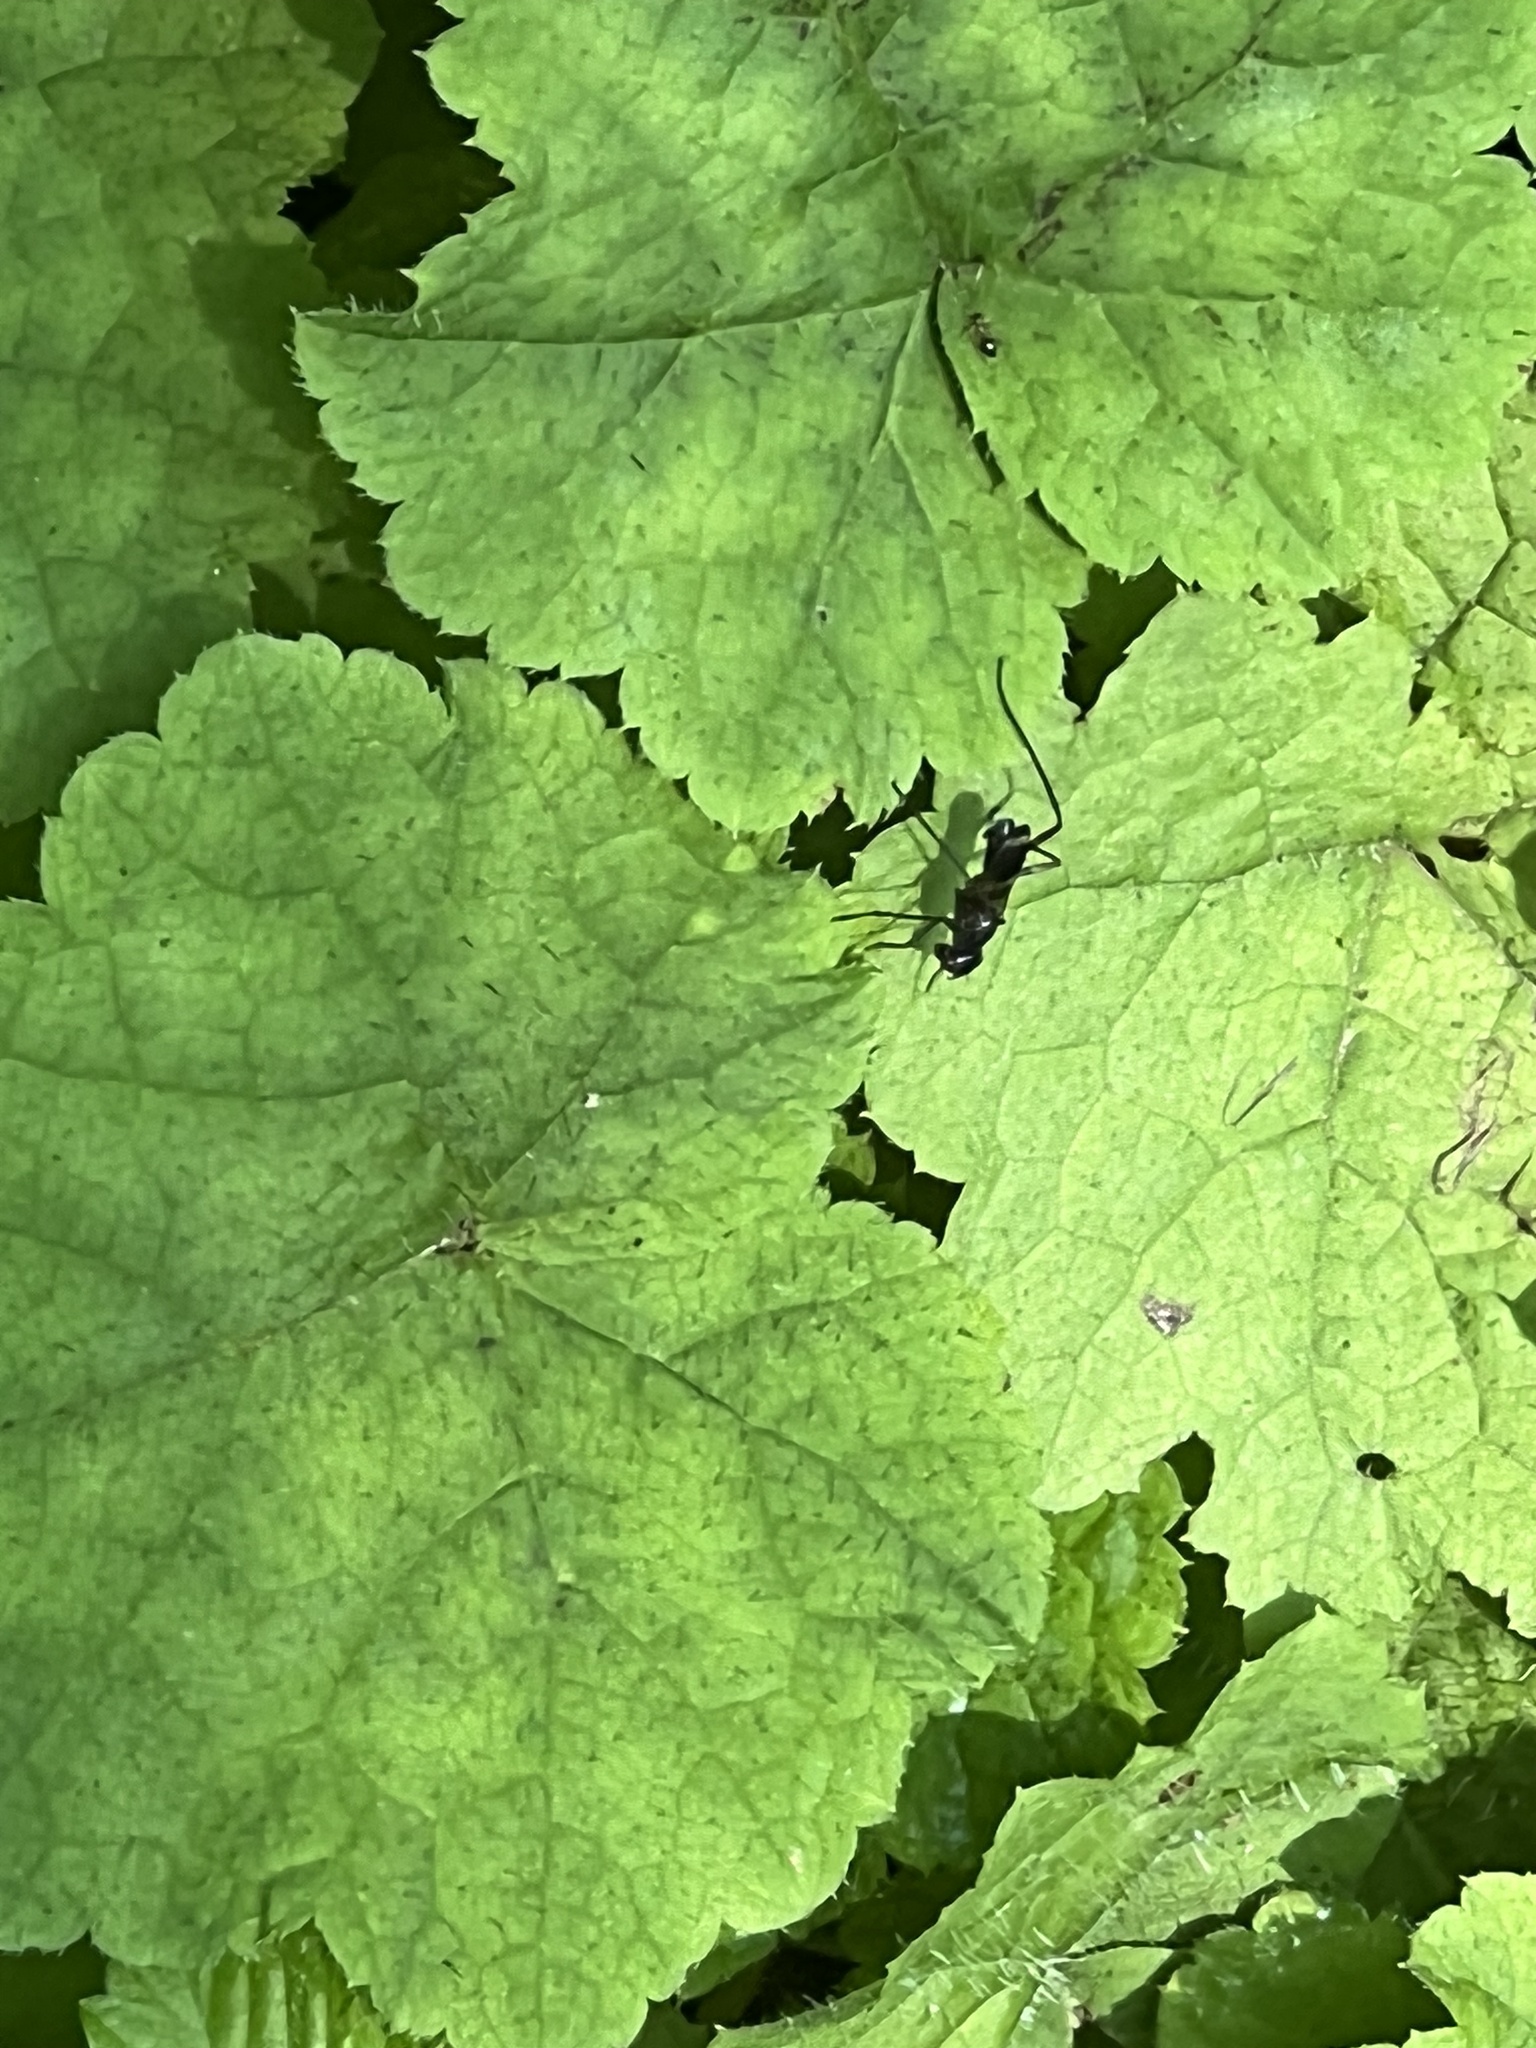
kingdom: Animalia
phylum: Arthropoda
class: Insecta
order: Diptera
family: Micropezidae
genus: Taeniaptera
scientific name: Taeniaptera trivittata
